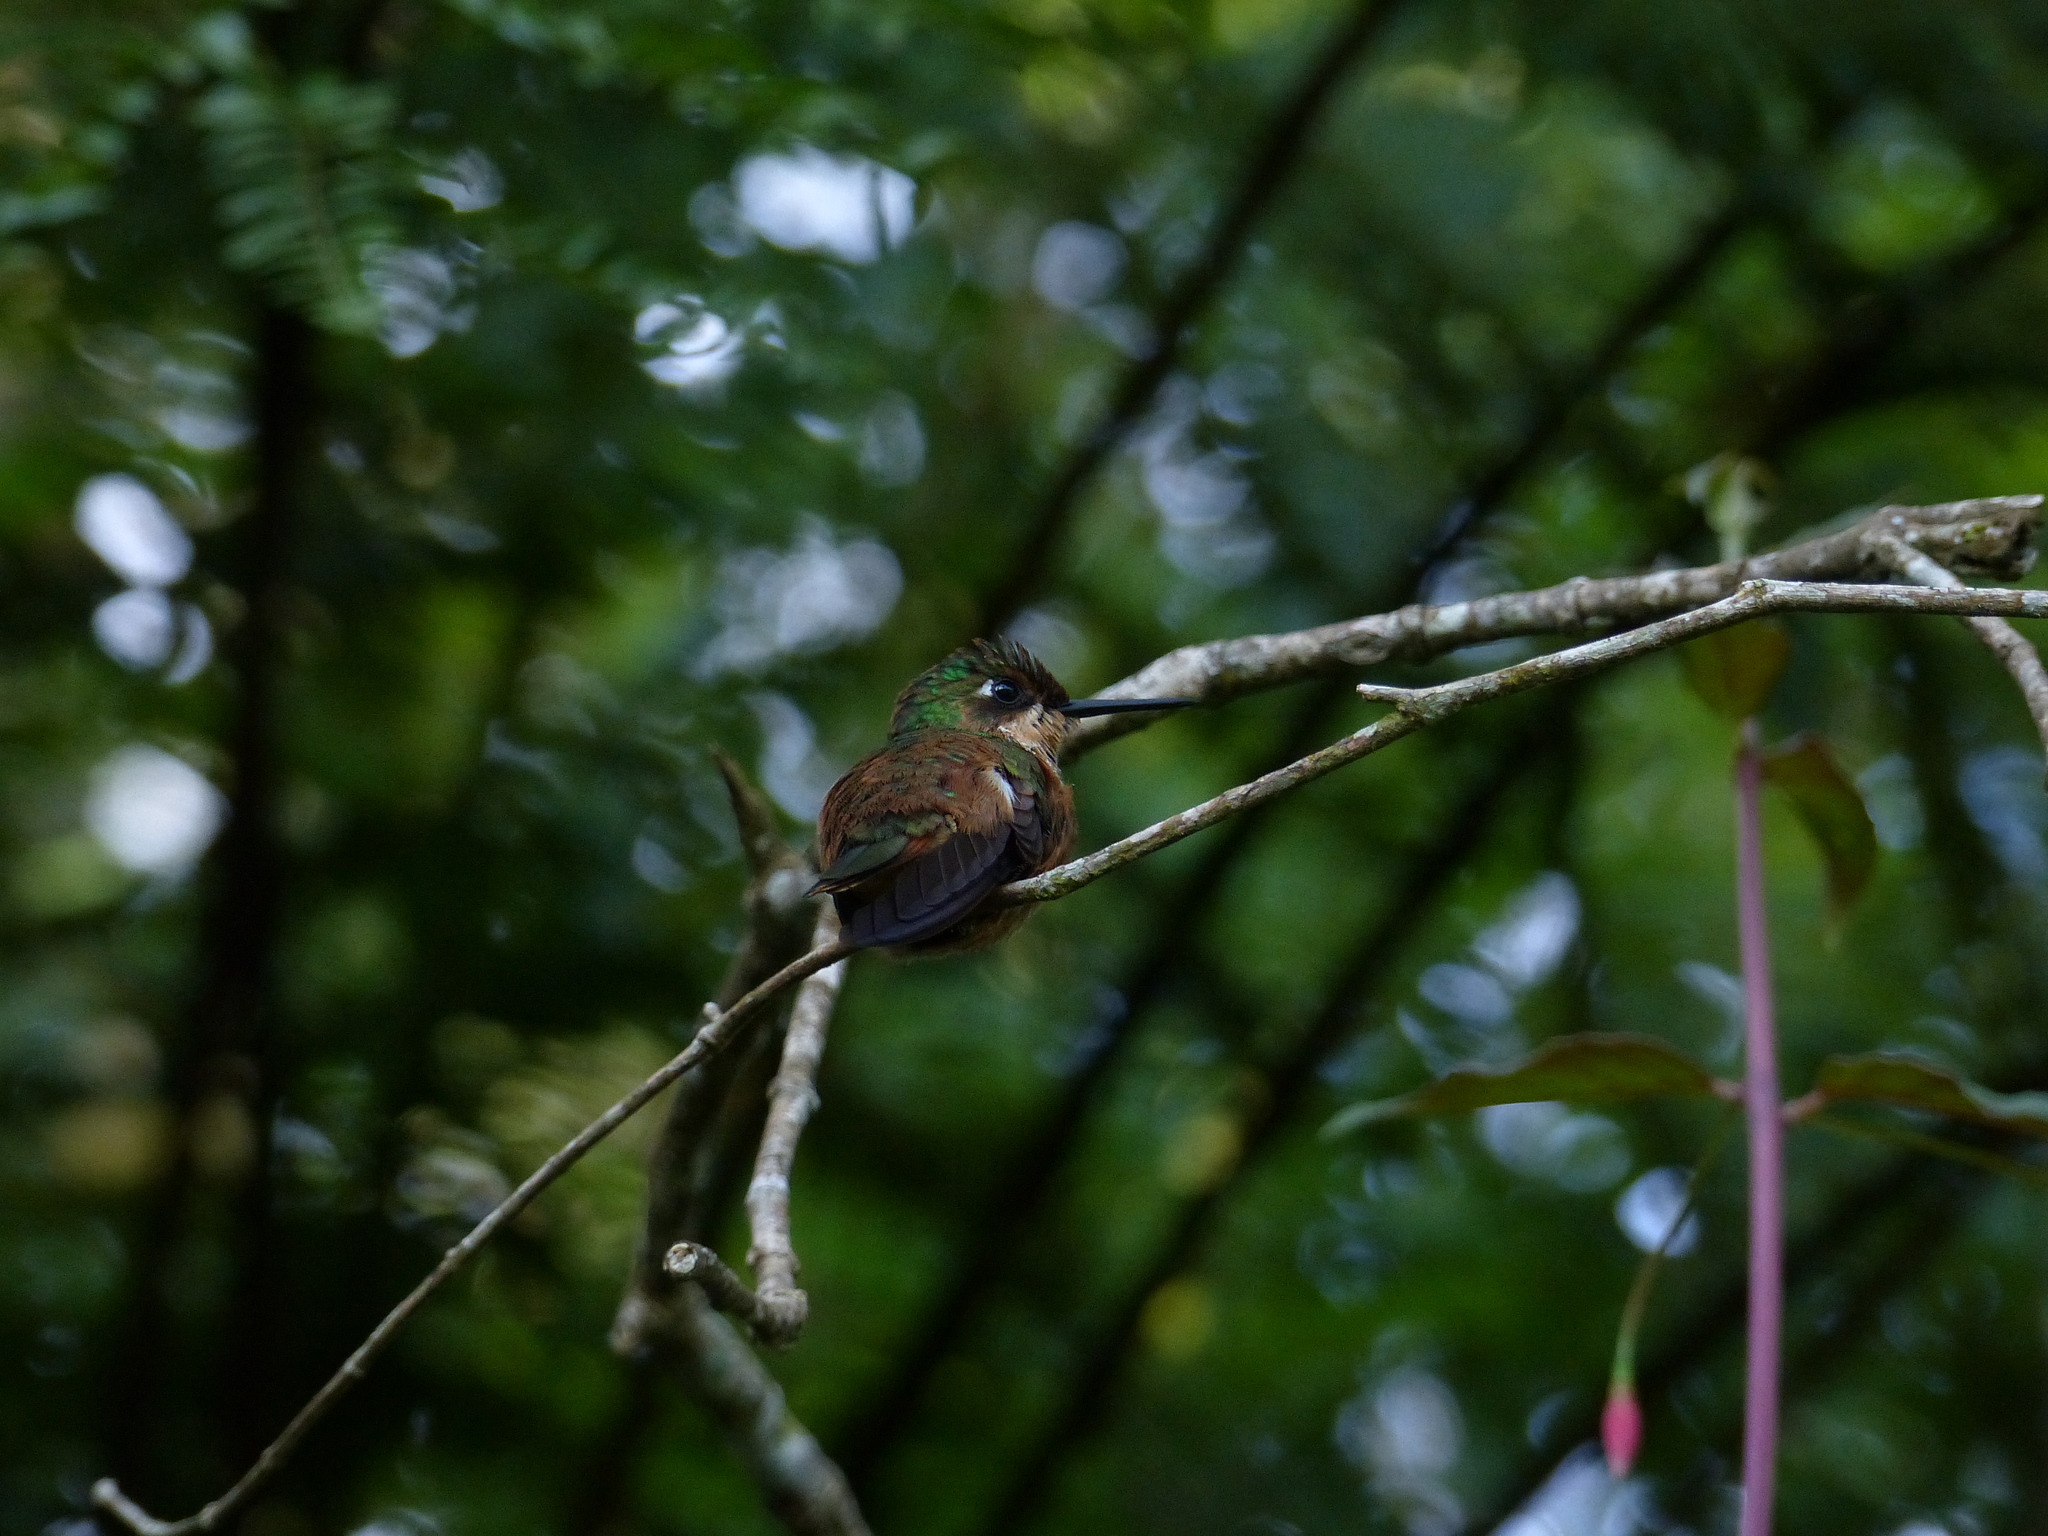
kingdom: Animalia
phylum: Chordata
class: Aves
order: Apodiformes
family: Trochilidae
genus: Clytolaema
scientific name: Clytolaema rubricauda
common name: Brazilian ruby
